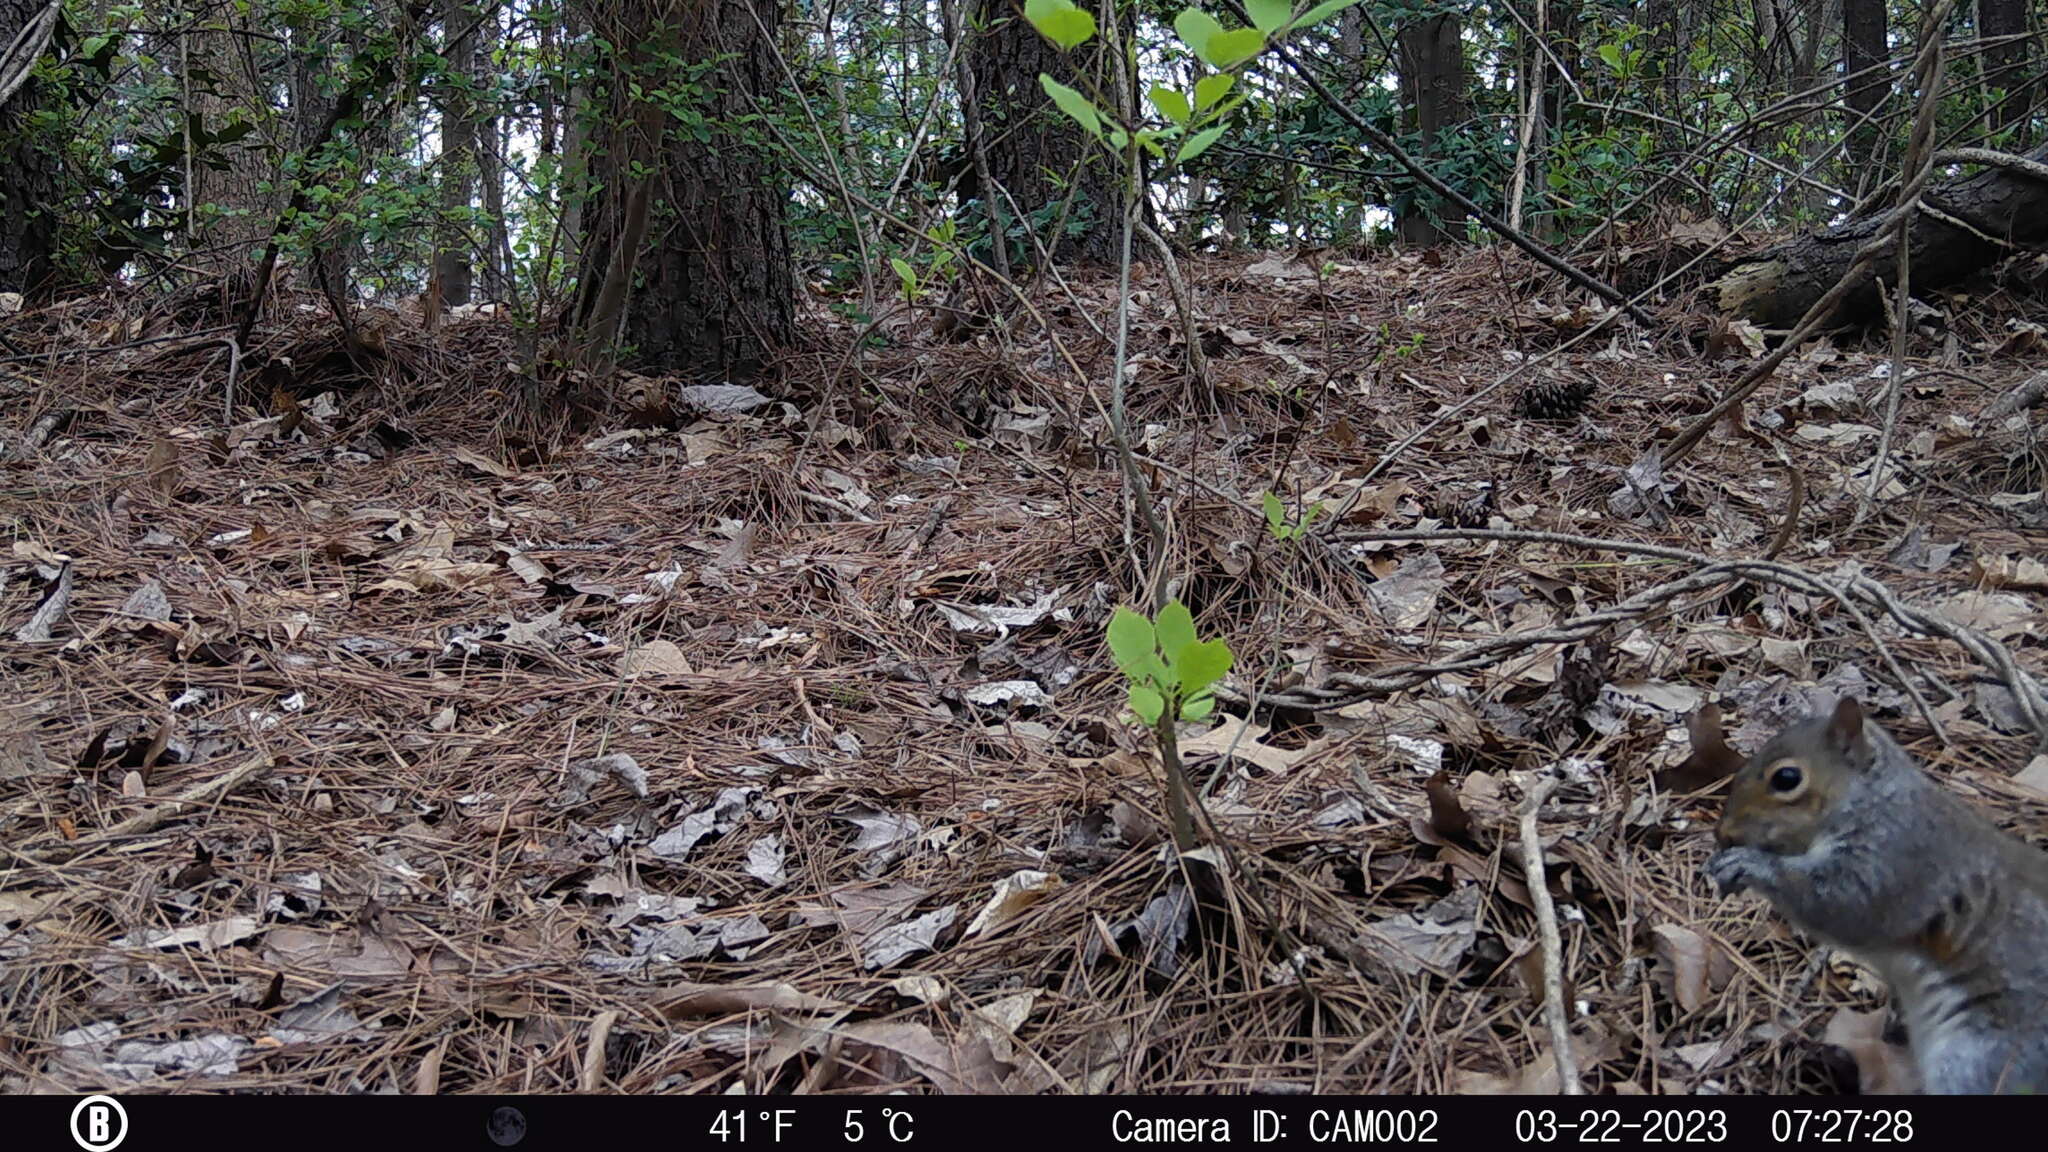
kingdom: Animalia
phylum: Chordata
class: Mammalia
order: Rodentia
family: Sciuridae
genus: Sciurus
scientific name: Sciurus carolinensis
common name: Eastern gray squirrel
